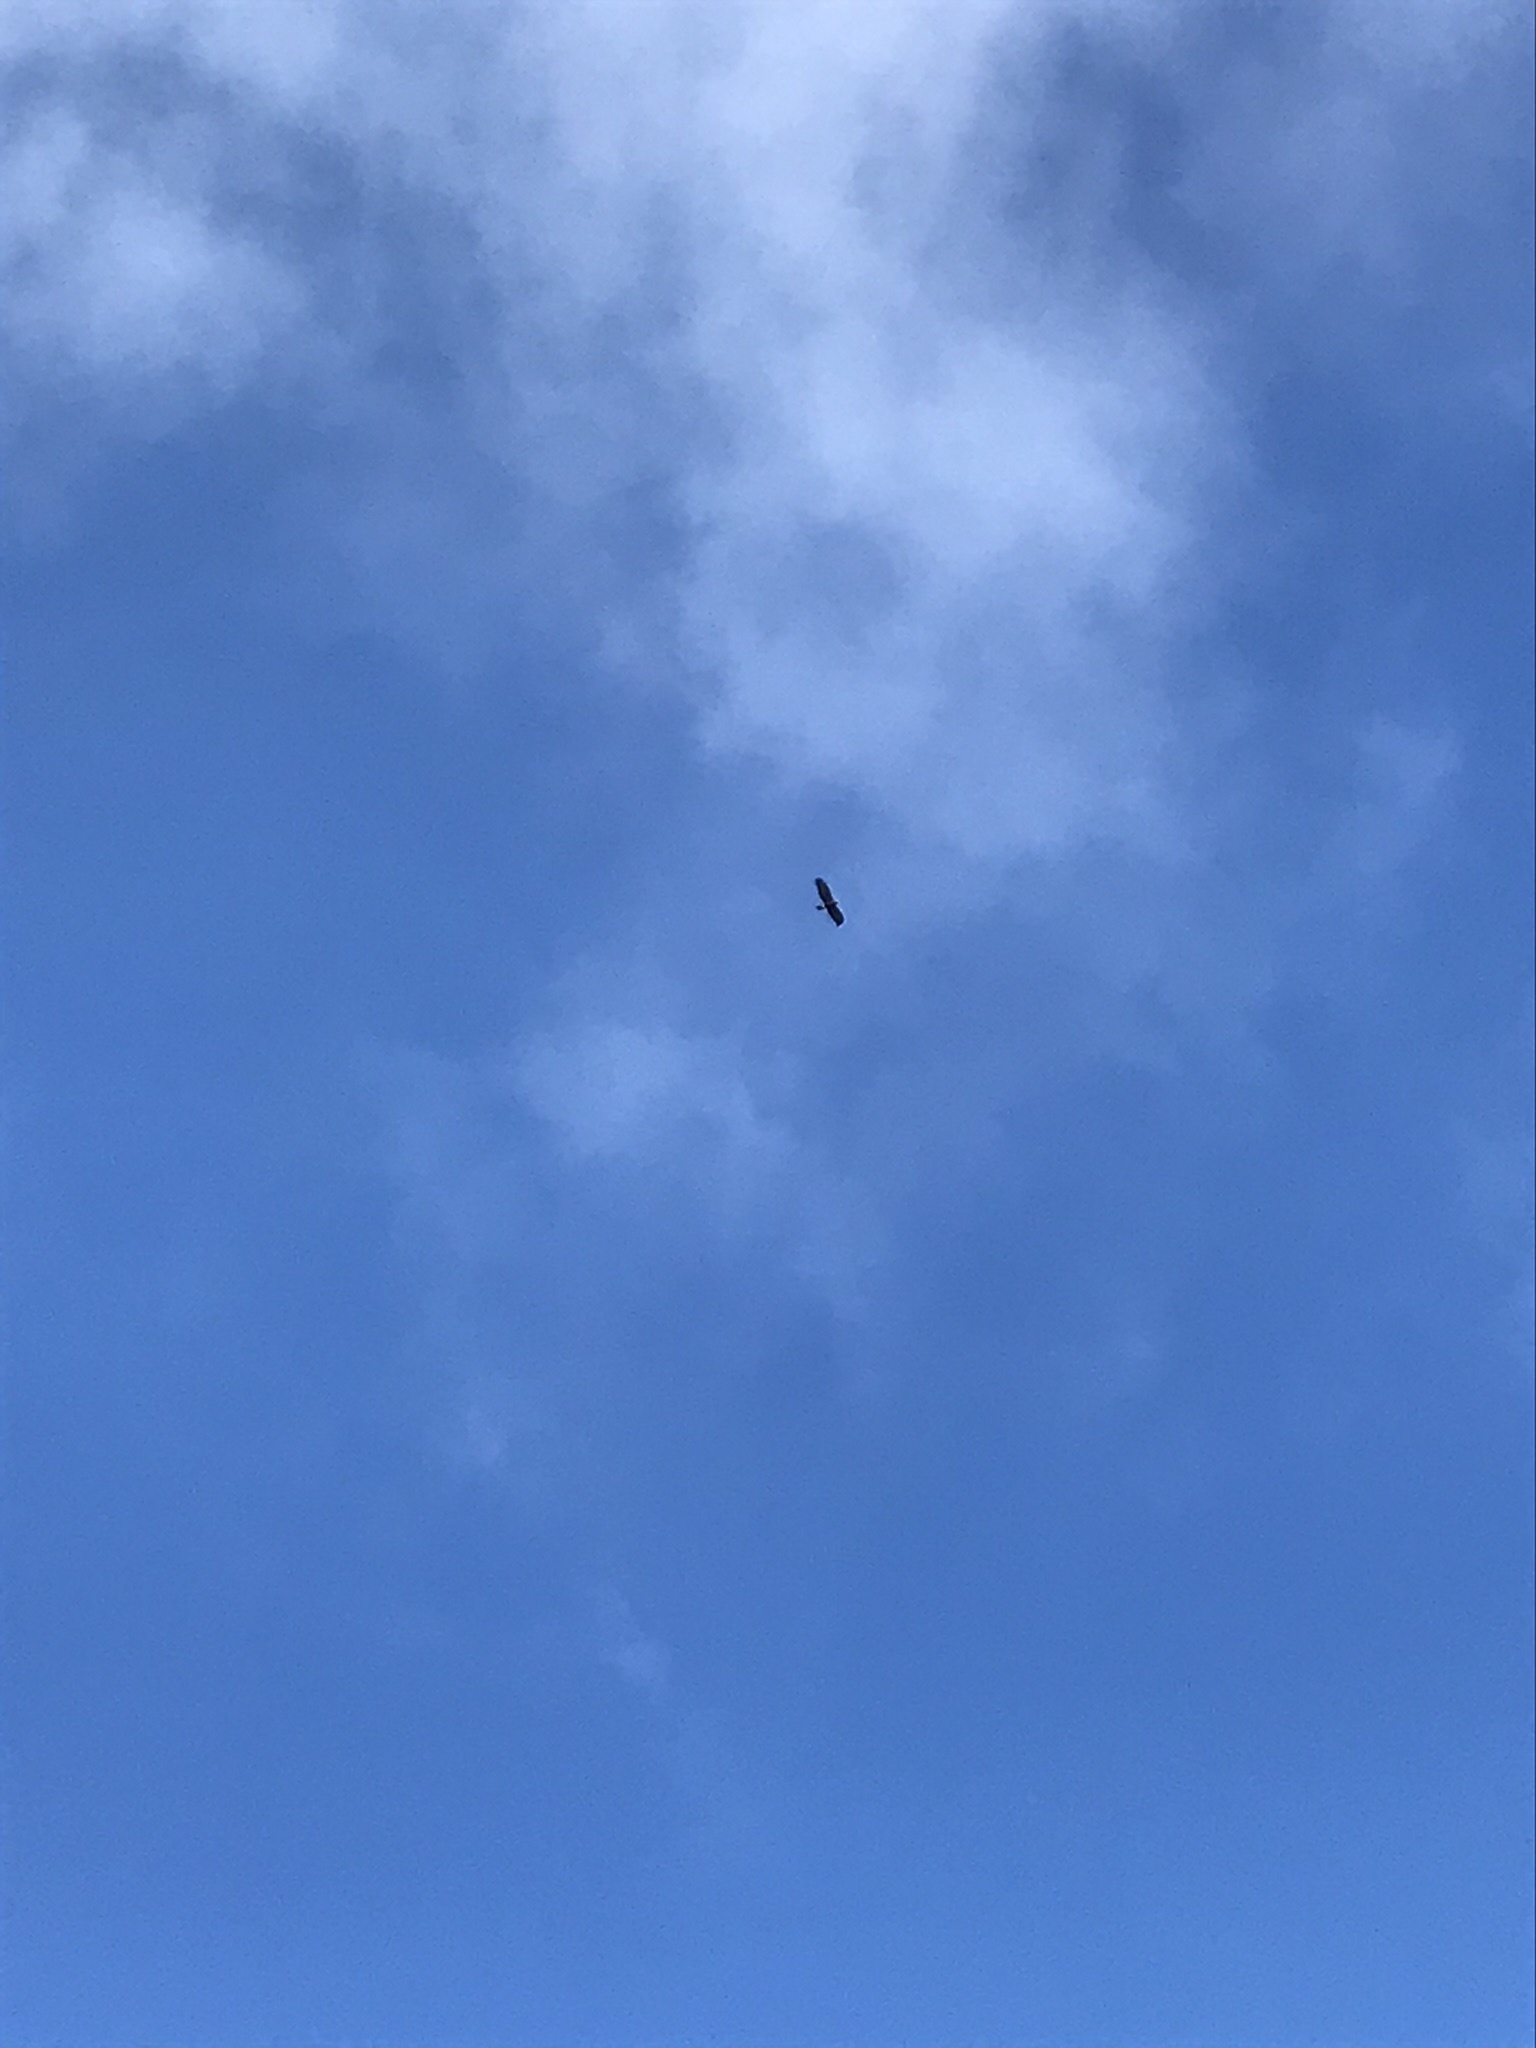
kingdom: Animalia
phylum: Chordata
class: Aves
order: Accipitriformes
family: Accipitridae
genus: Aquila
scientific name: Aquila chrysaetos
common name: Golden eagle
